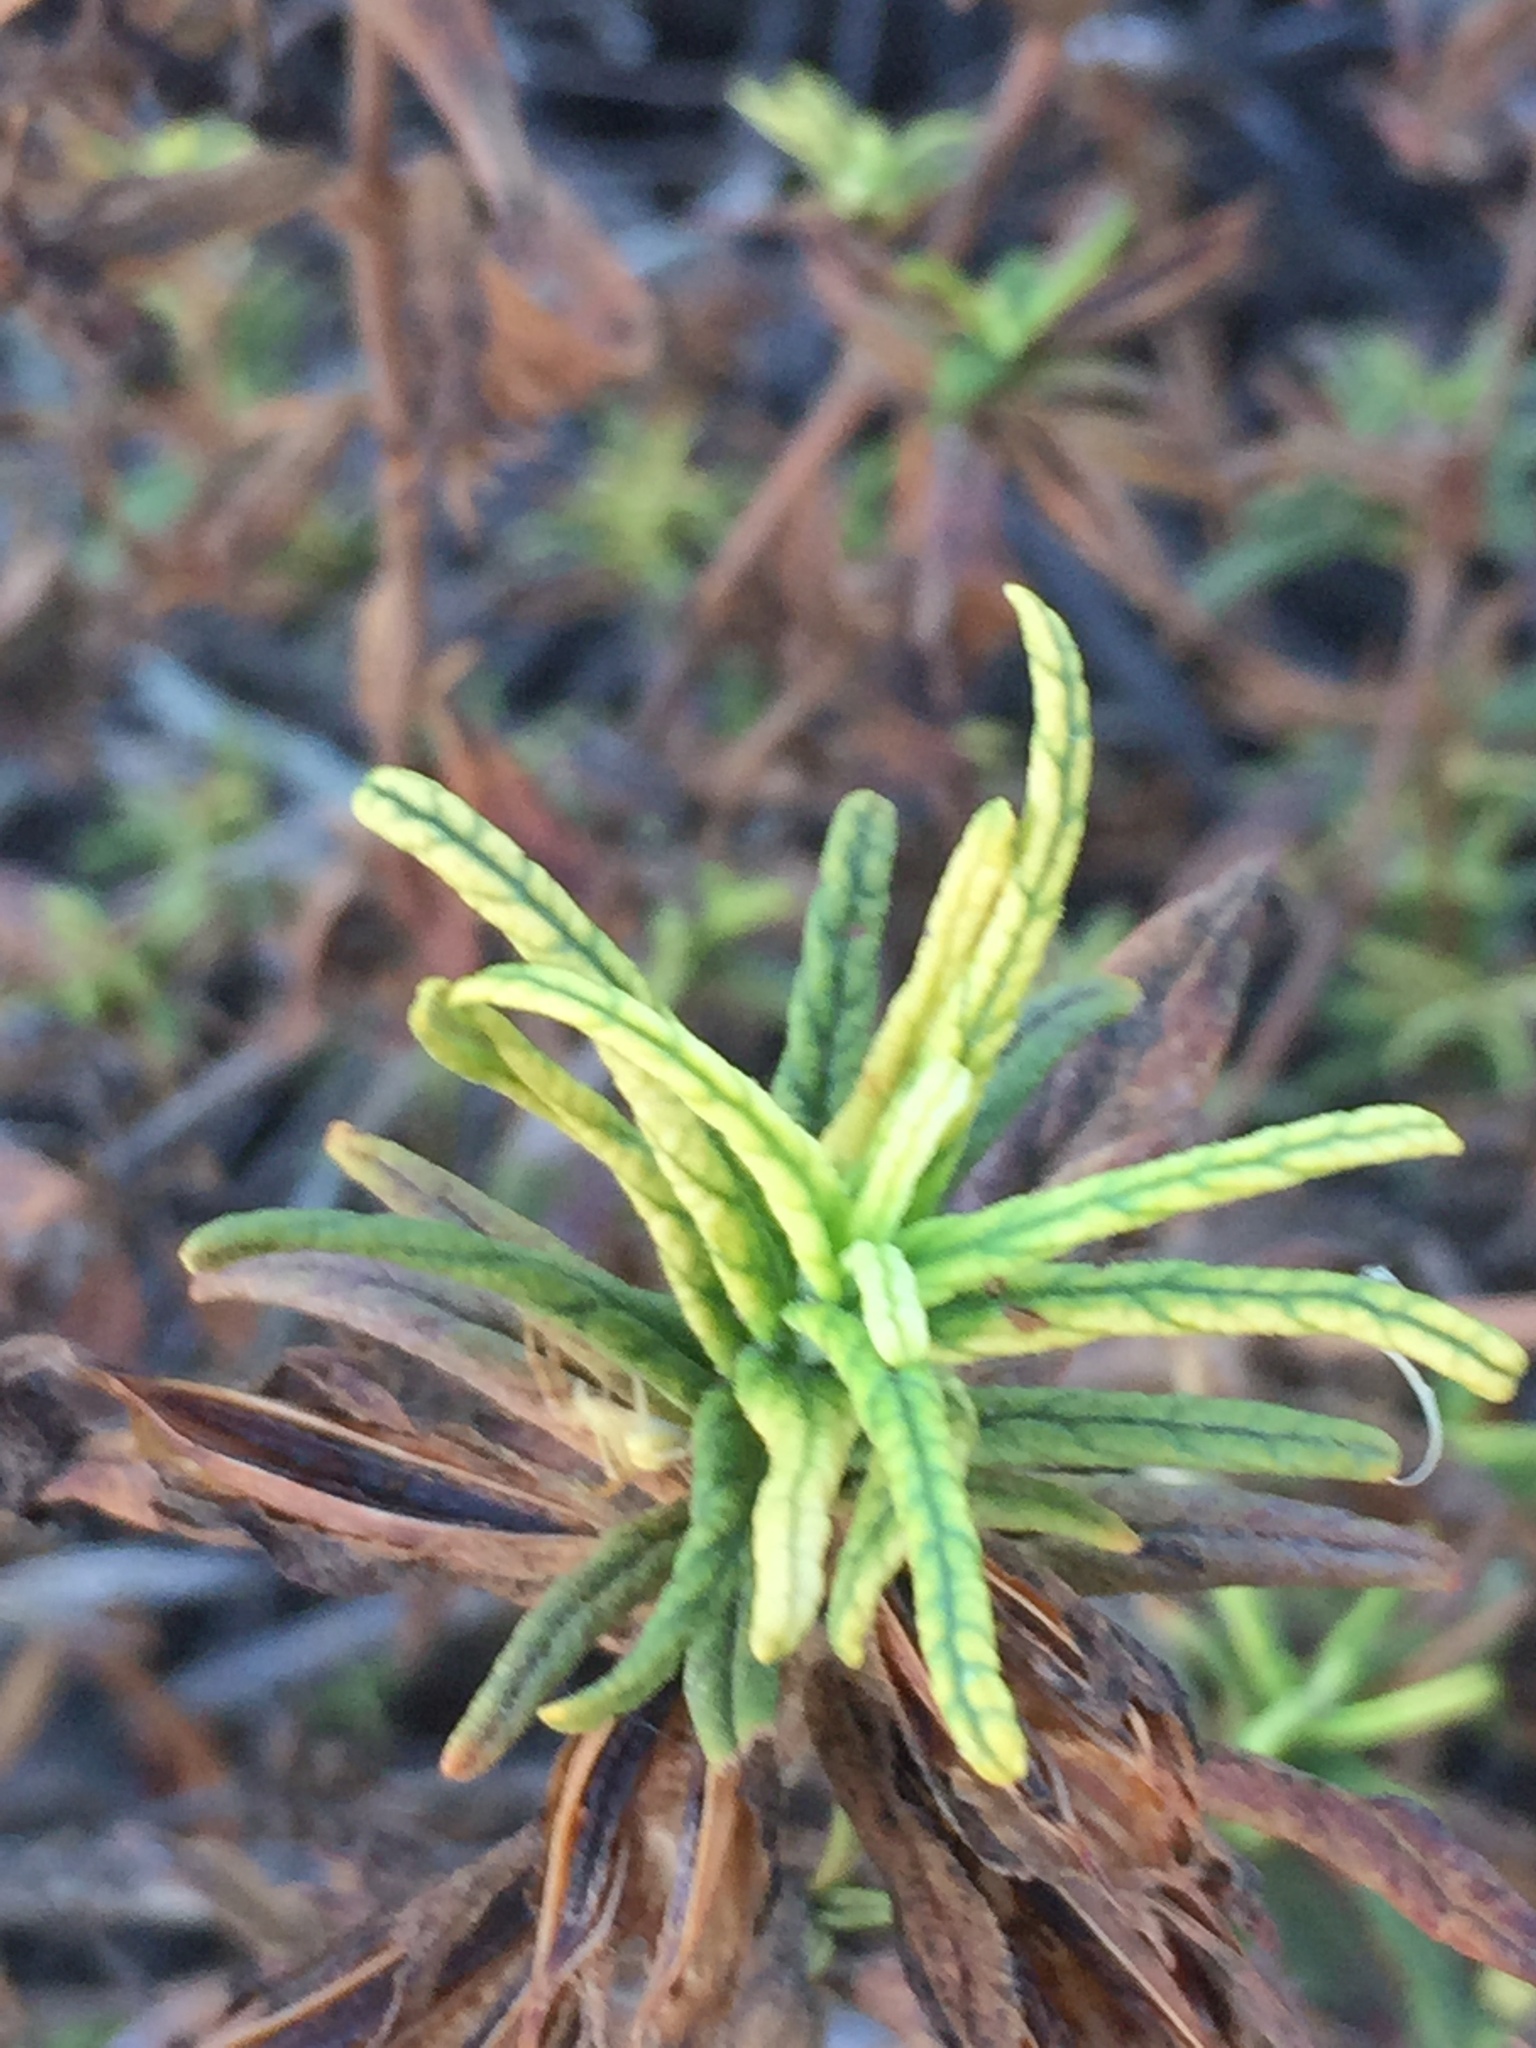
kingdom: Plantae
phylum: Tracheophyta
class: Magnoliopsida
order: Lamiales
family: Phrymaceae
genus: Diplacus
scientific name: Diplacus longiflorus
